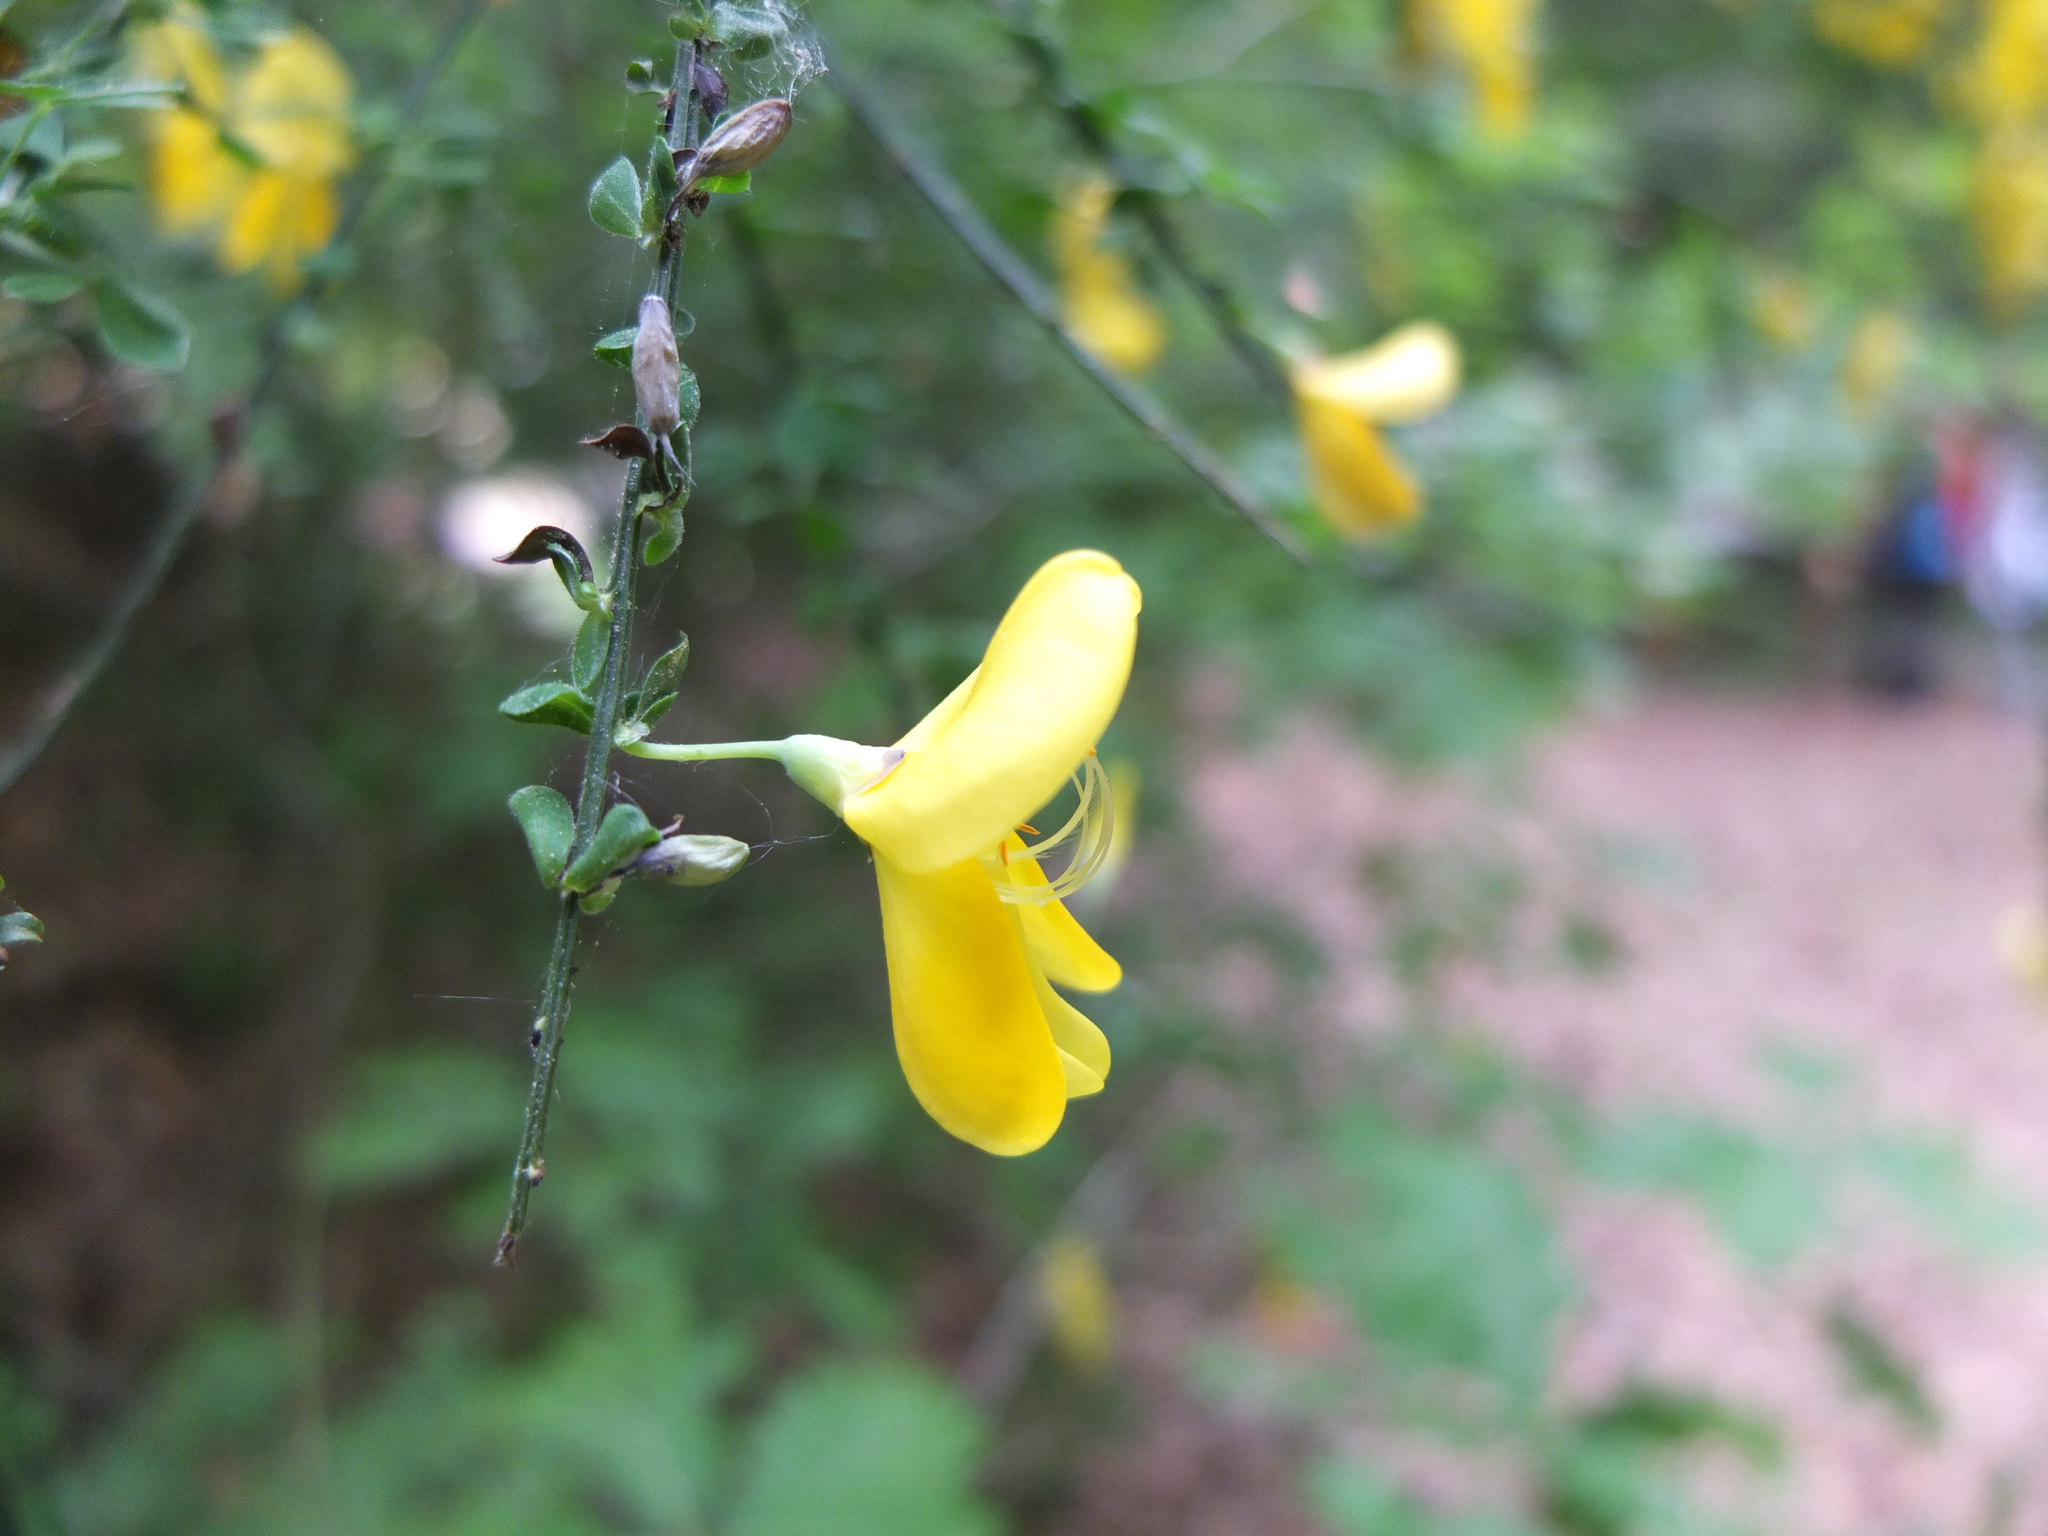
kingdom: Plantae
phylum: Tracheophyta
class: Magnoliopsida
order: Fabales
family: Fabaceae
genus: Cytisus
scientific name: Cytisus scoparius
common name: Scotch broom
